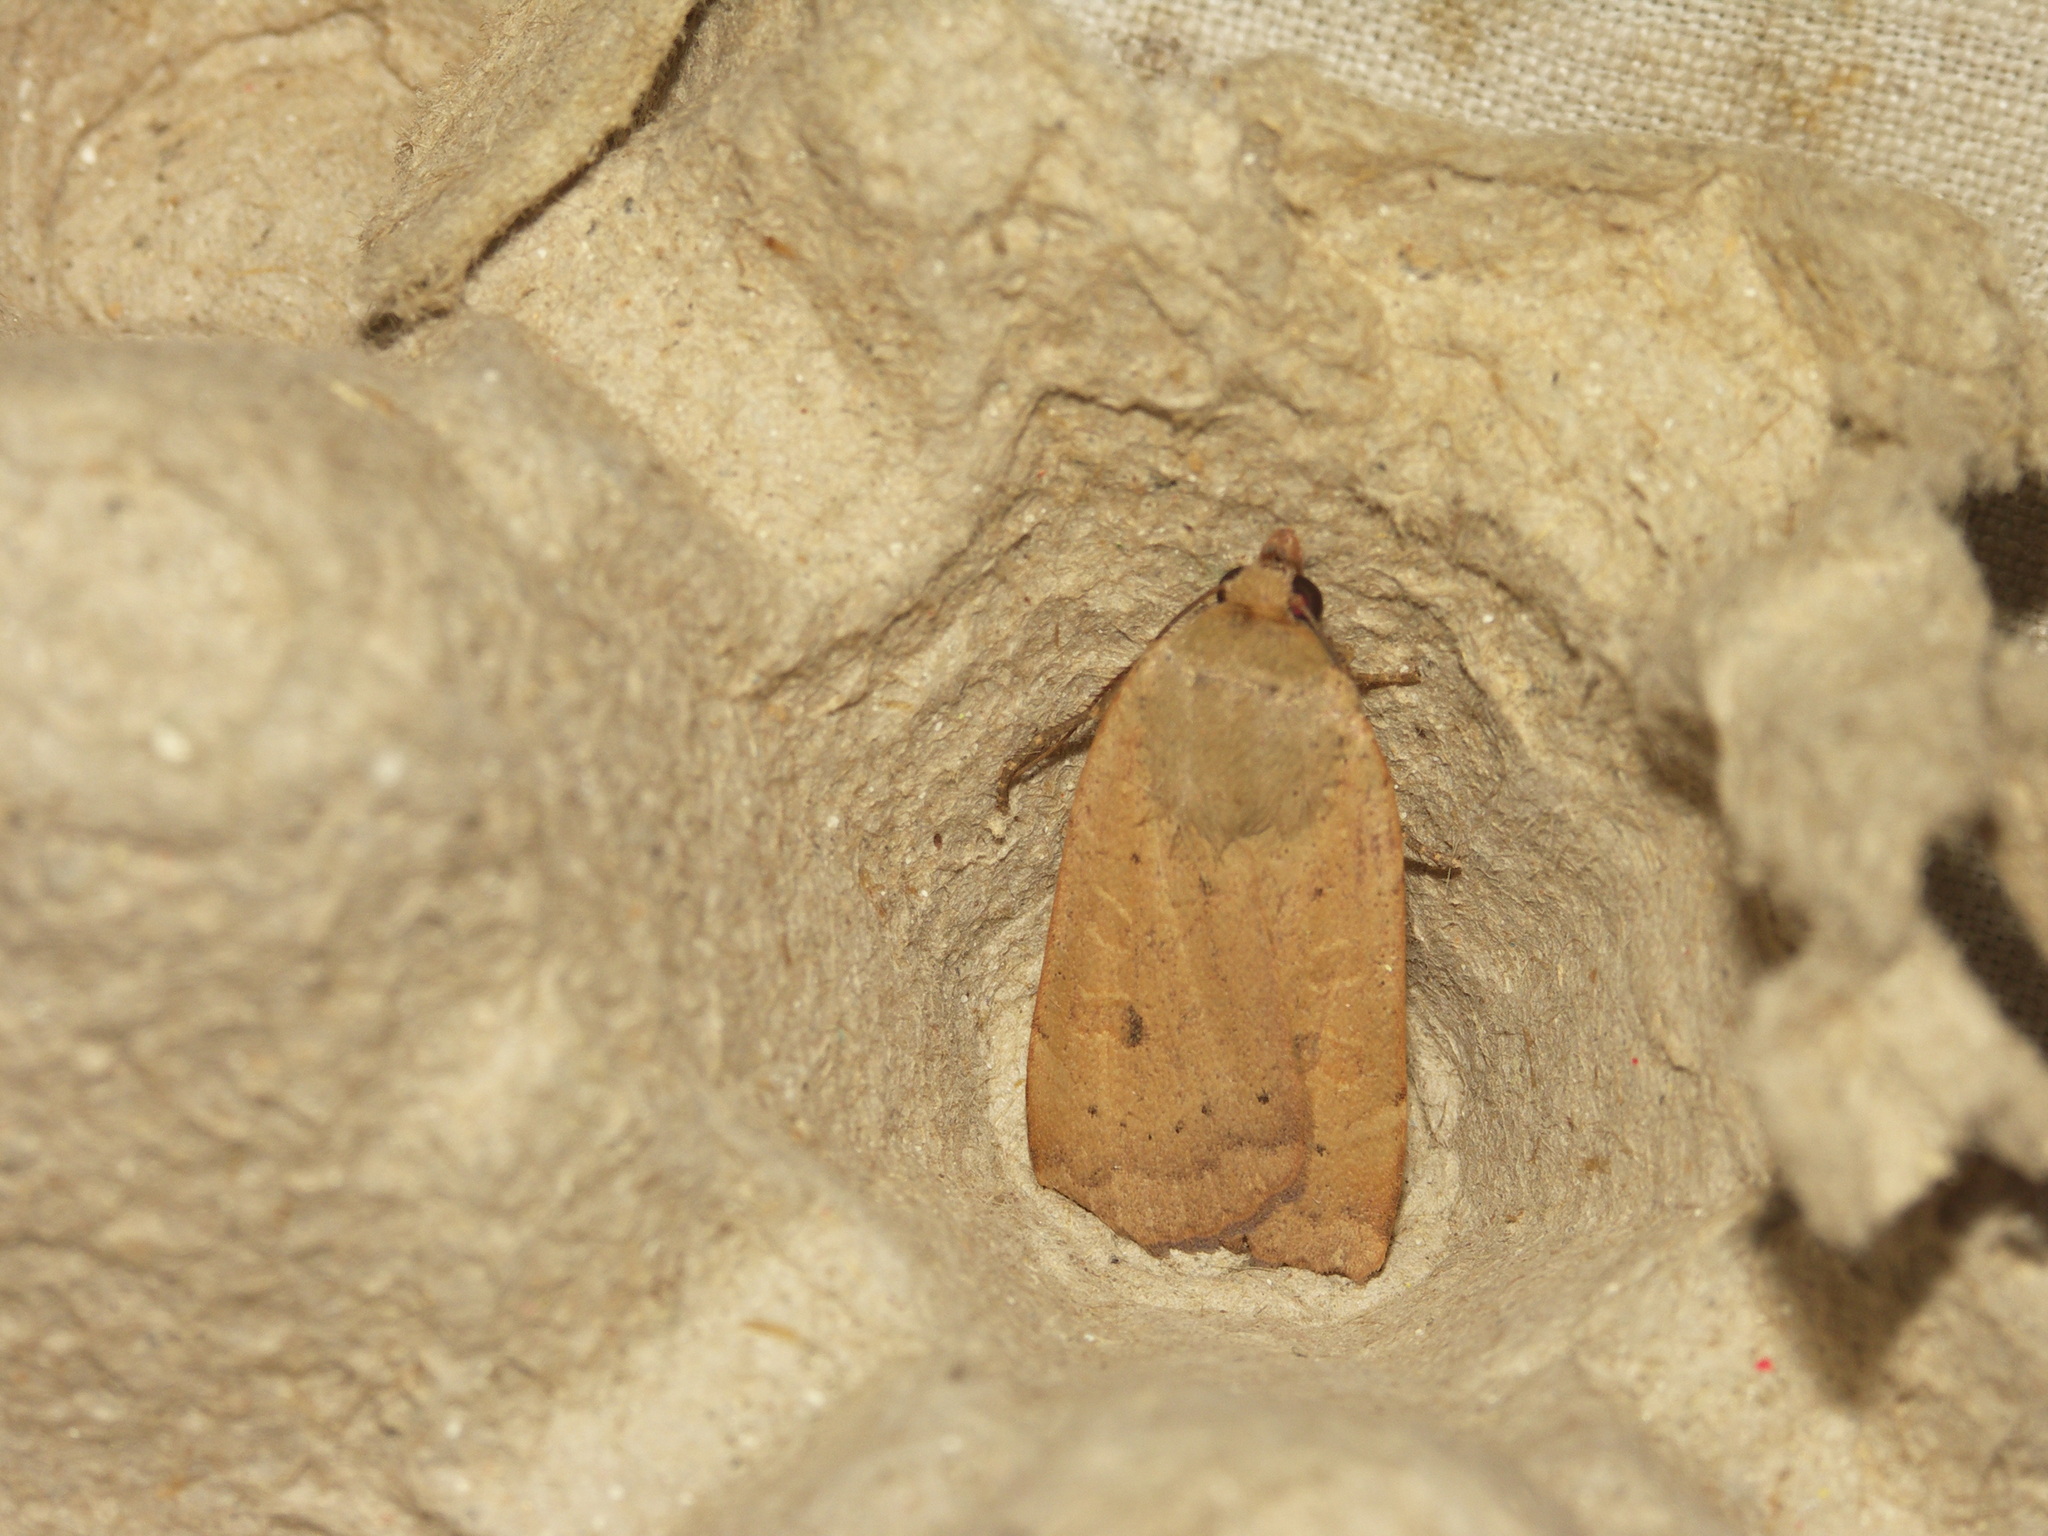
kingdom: Animalia
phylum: Arthropoda
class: Insecta
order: Lepidoptera
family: Noctuidae
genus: Noctua
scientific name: Noctua comes
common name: Lesser yellow underwing
